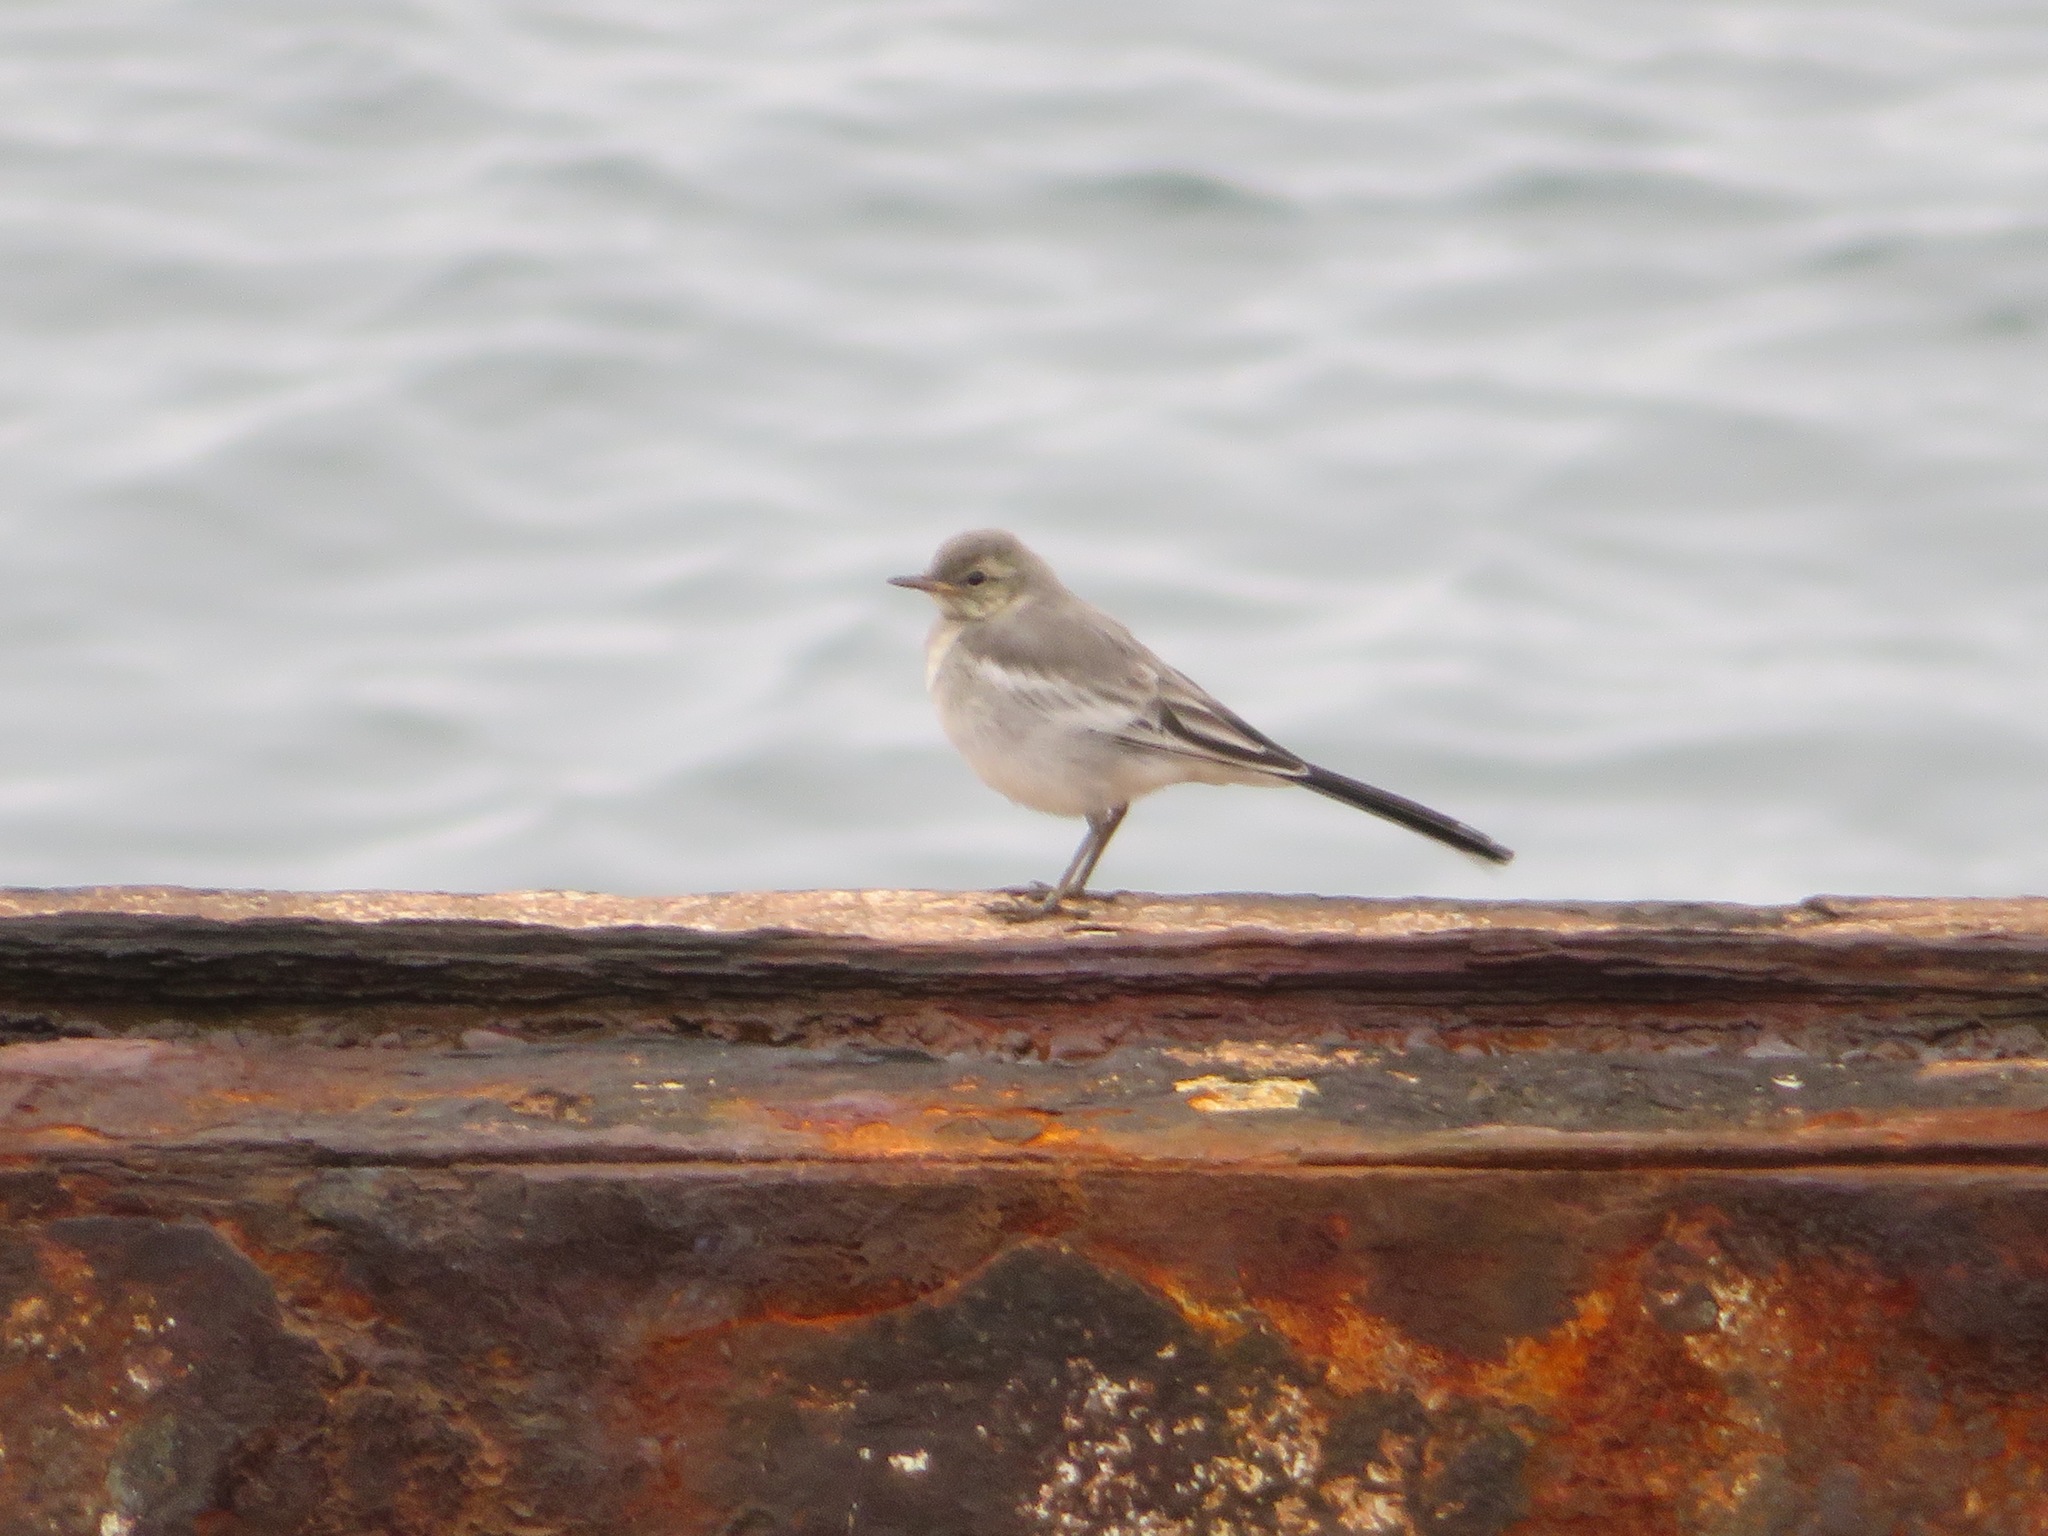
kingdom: Animalia
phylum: Chordata
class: Aves
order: Passeriformes
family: Motacillidae
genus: Motacilla
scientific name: Motacilla alba
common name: White wagtail
